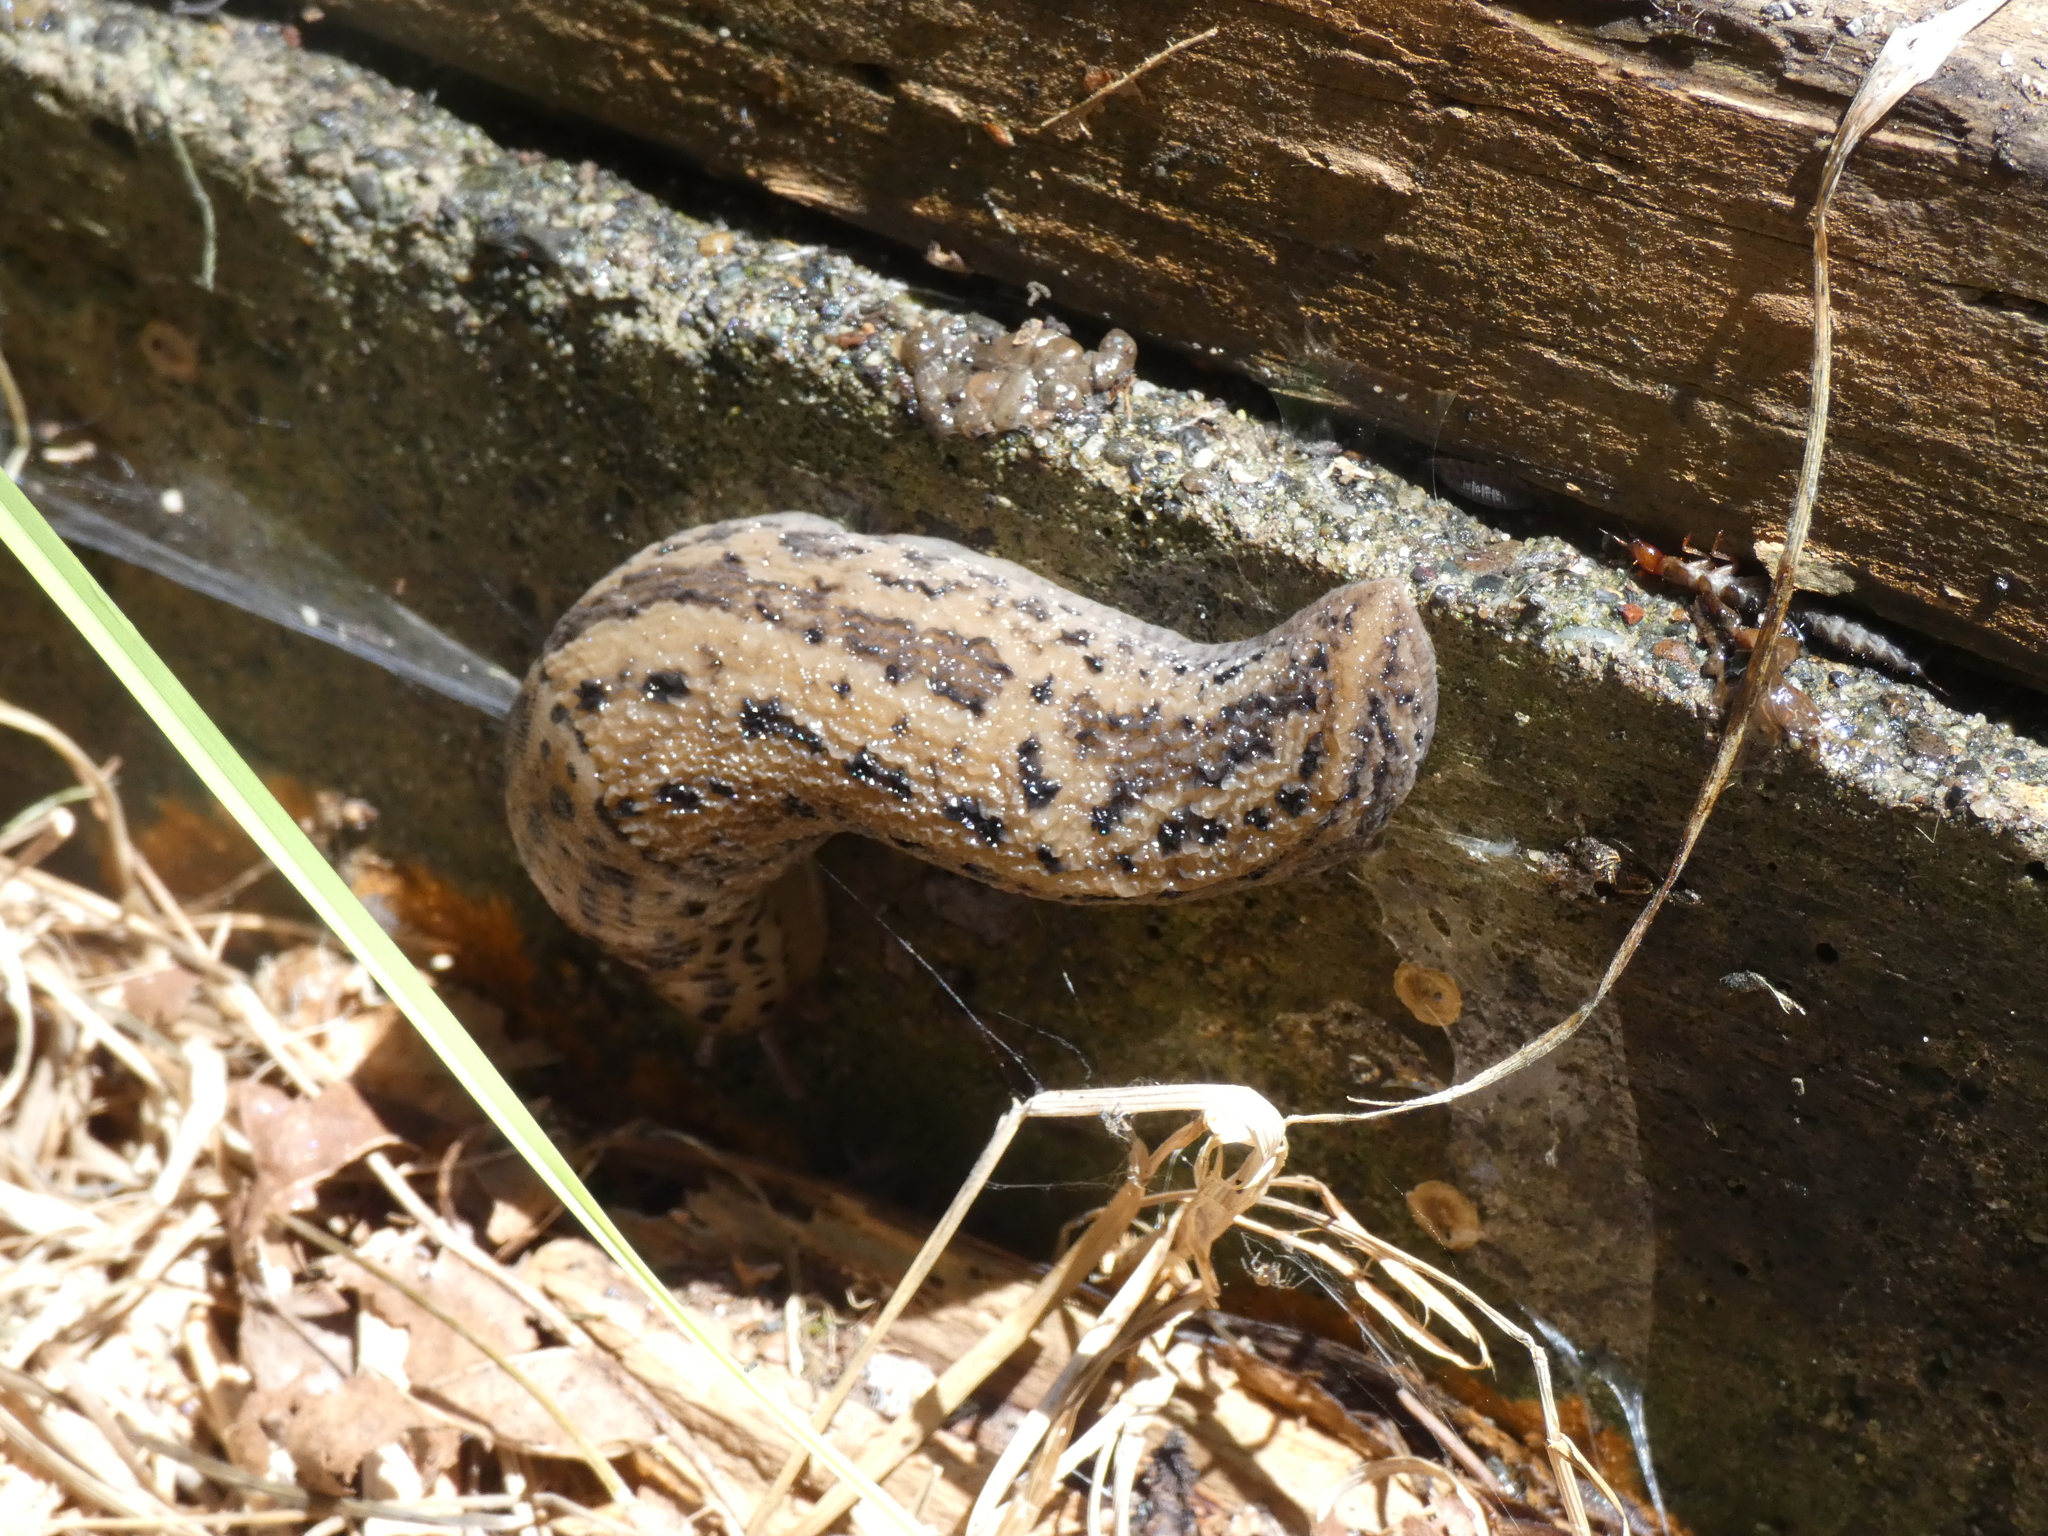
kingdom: Animalia
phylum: Mollusca
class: Gastropoda
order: Stylommatophora
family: Limacidae
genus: Limax
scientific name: Limax maximus
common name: Great grey slug
